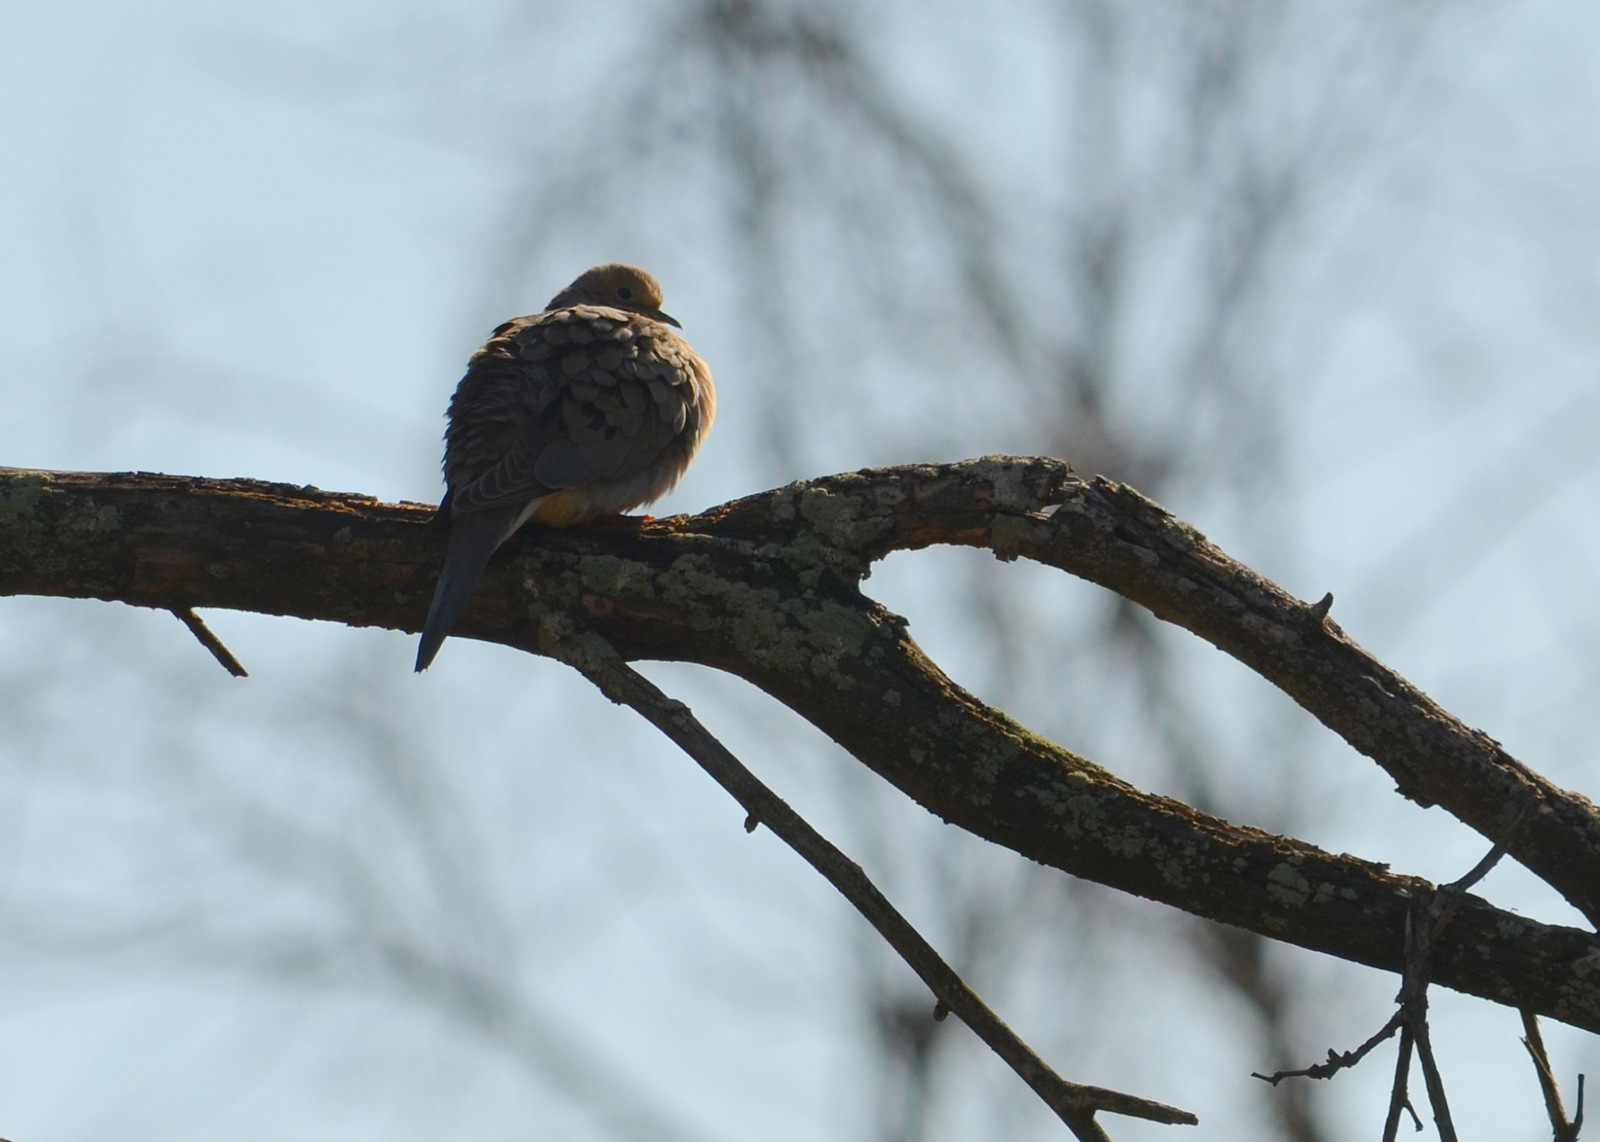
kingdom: Animalia
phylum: Chordata
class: Aves
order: Columbiformes
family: Columbidae
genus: Zenaida
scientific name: Zenaida macroura
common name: Mourning dove
